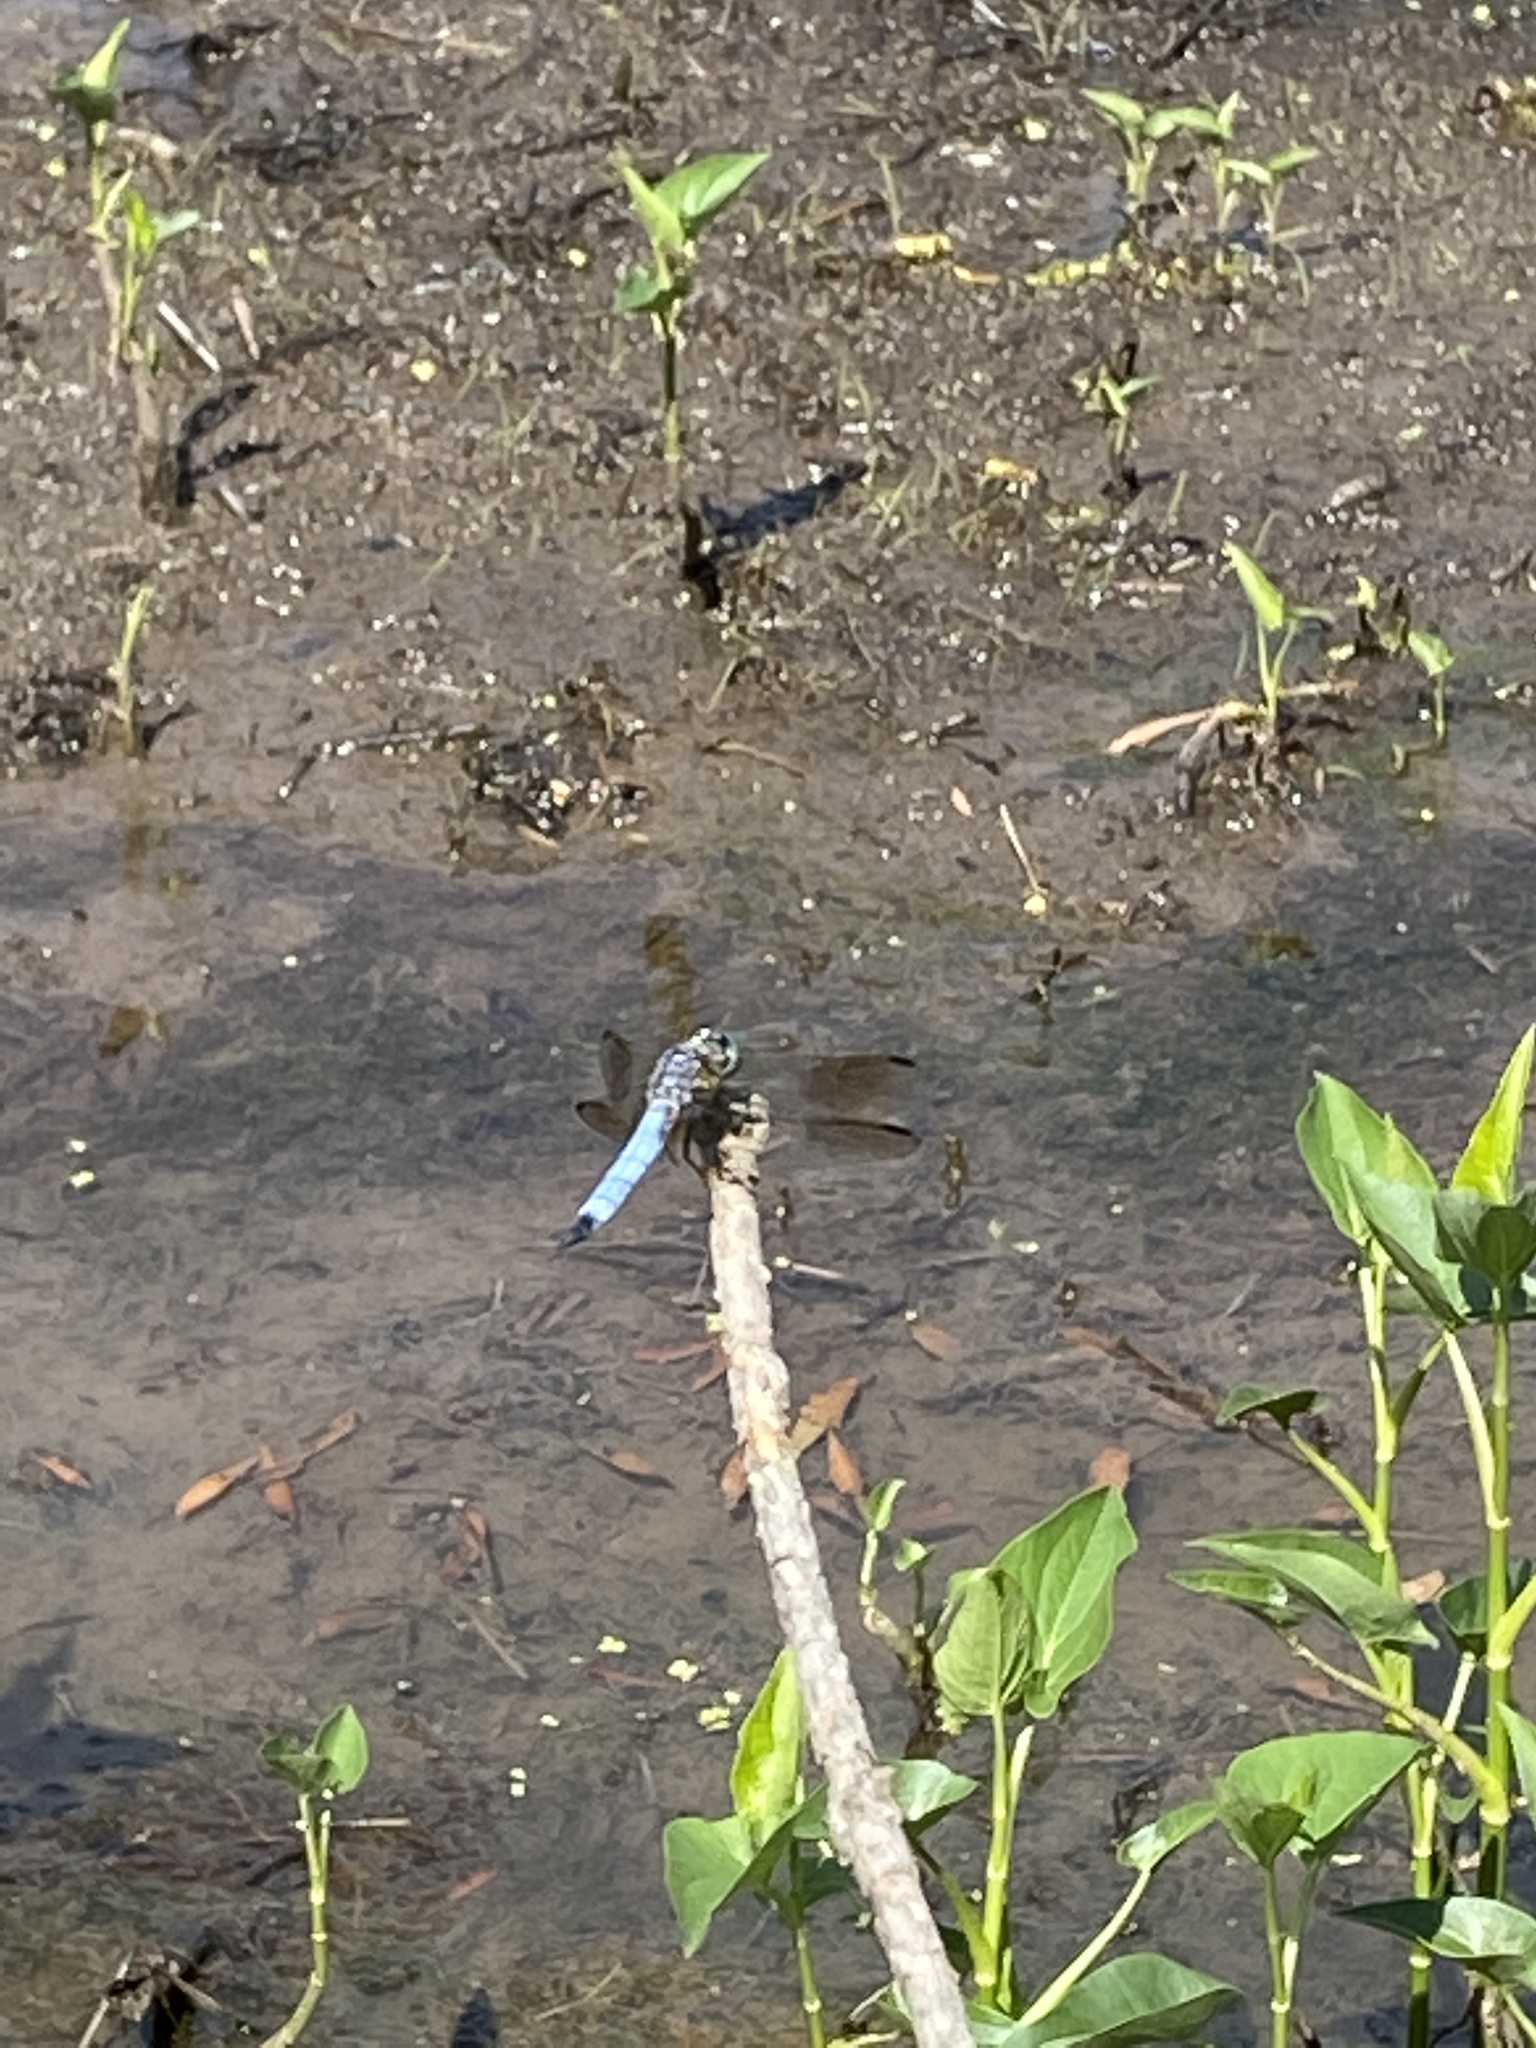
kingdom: Animalia
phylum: Arthropoda
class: Insecta
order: Odonata
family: Libellulidae
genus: Pachydiplax
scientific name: Pachydiplax longipennis
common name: Blue dasher
